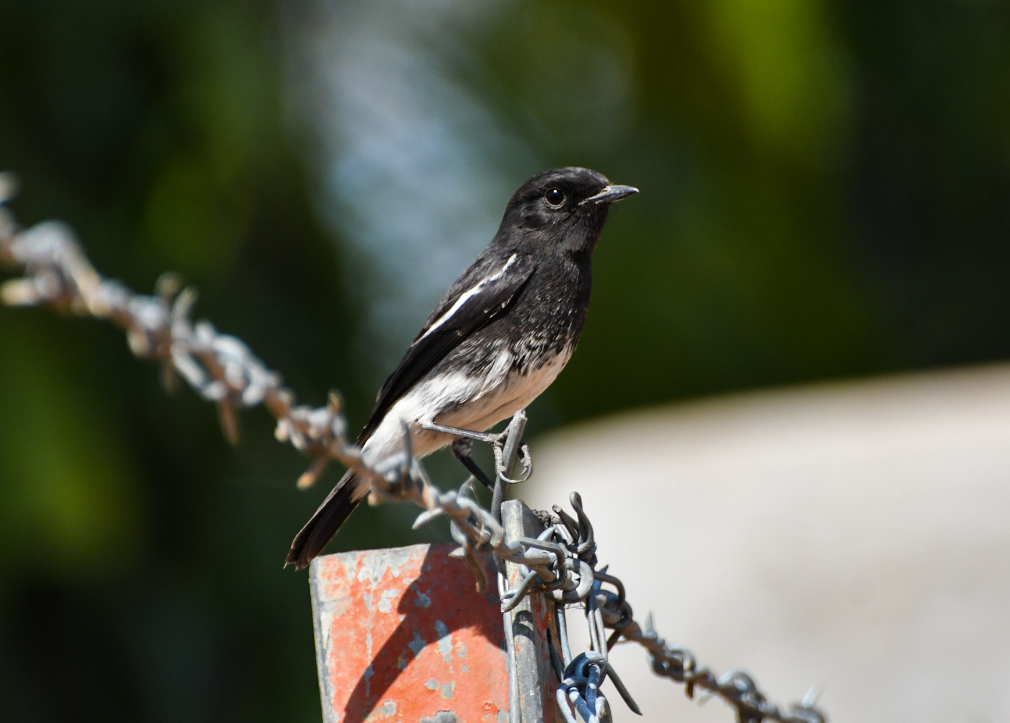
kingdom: Animalia
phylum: Chordata
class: Aves
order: Passeriformes
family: Muscicapidae
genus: Saxicola
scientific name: Saxicola caprata
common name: Pied bush chat
